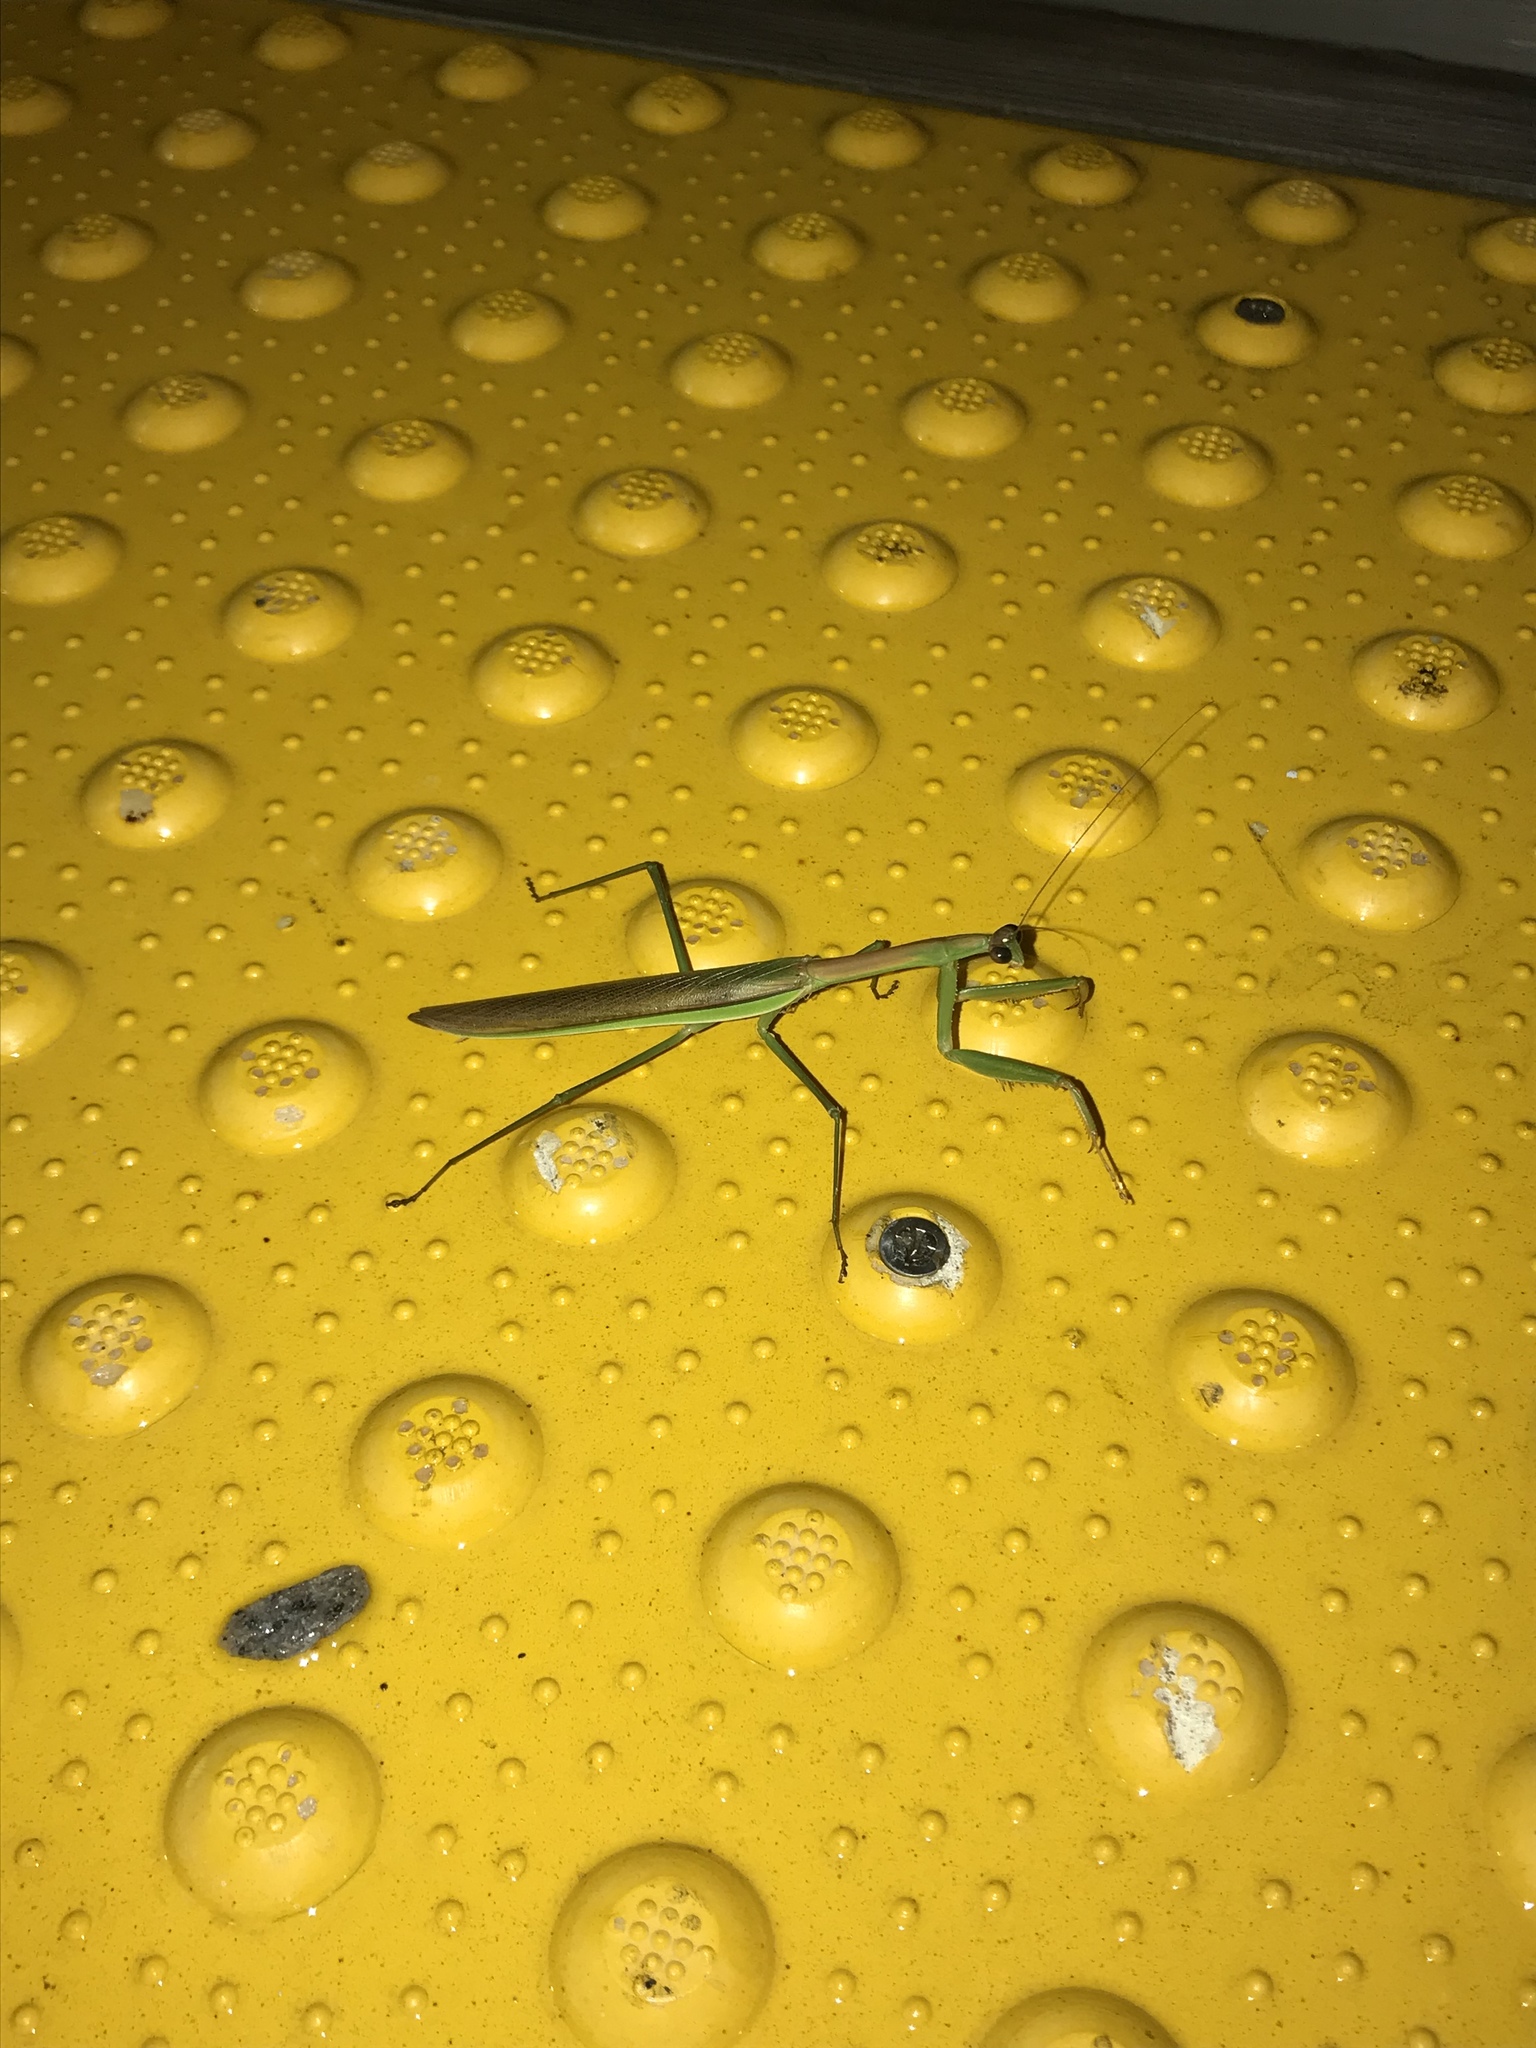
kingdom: Animalia
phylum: Arthropoda
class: Insecta
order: Mantodea
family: Mantidae
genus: Tenodera
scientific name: Tenodera sinensis
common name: Chinese mantis
